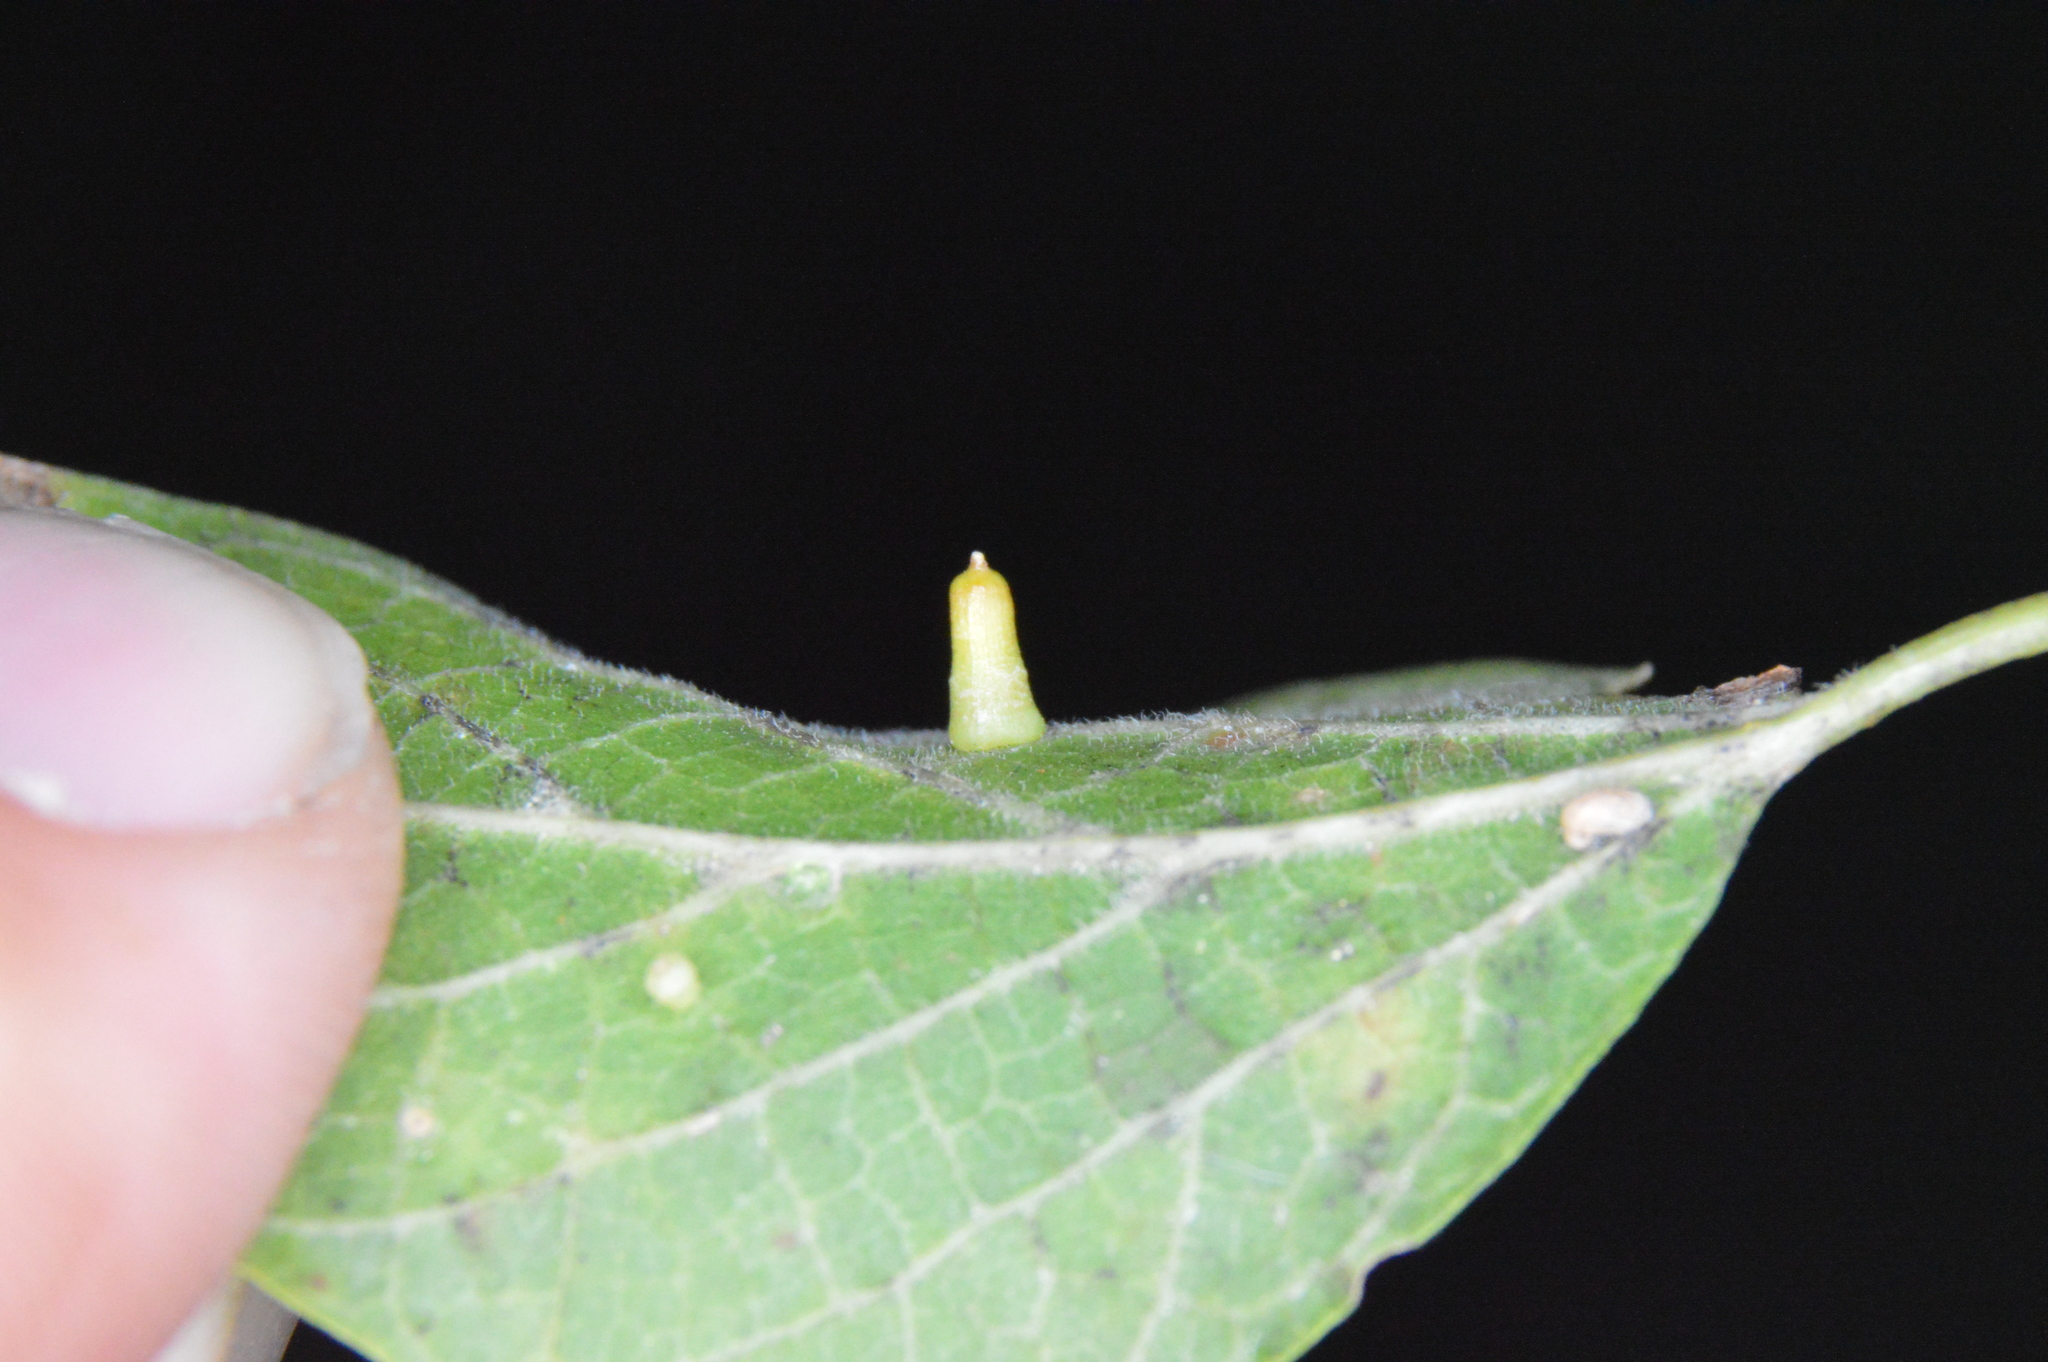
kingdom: Animalia
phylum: Arthropoda
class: Insecta
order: Diptera
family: Cecidomyiidae
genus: Celticecis
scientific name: Celticecis aciculata
